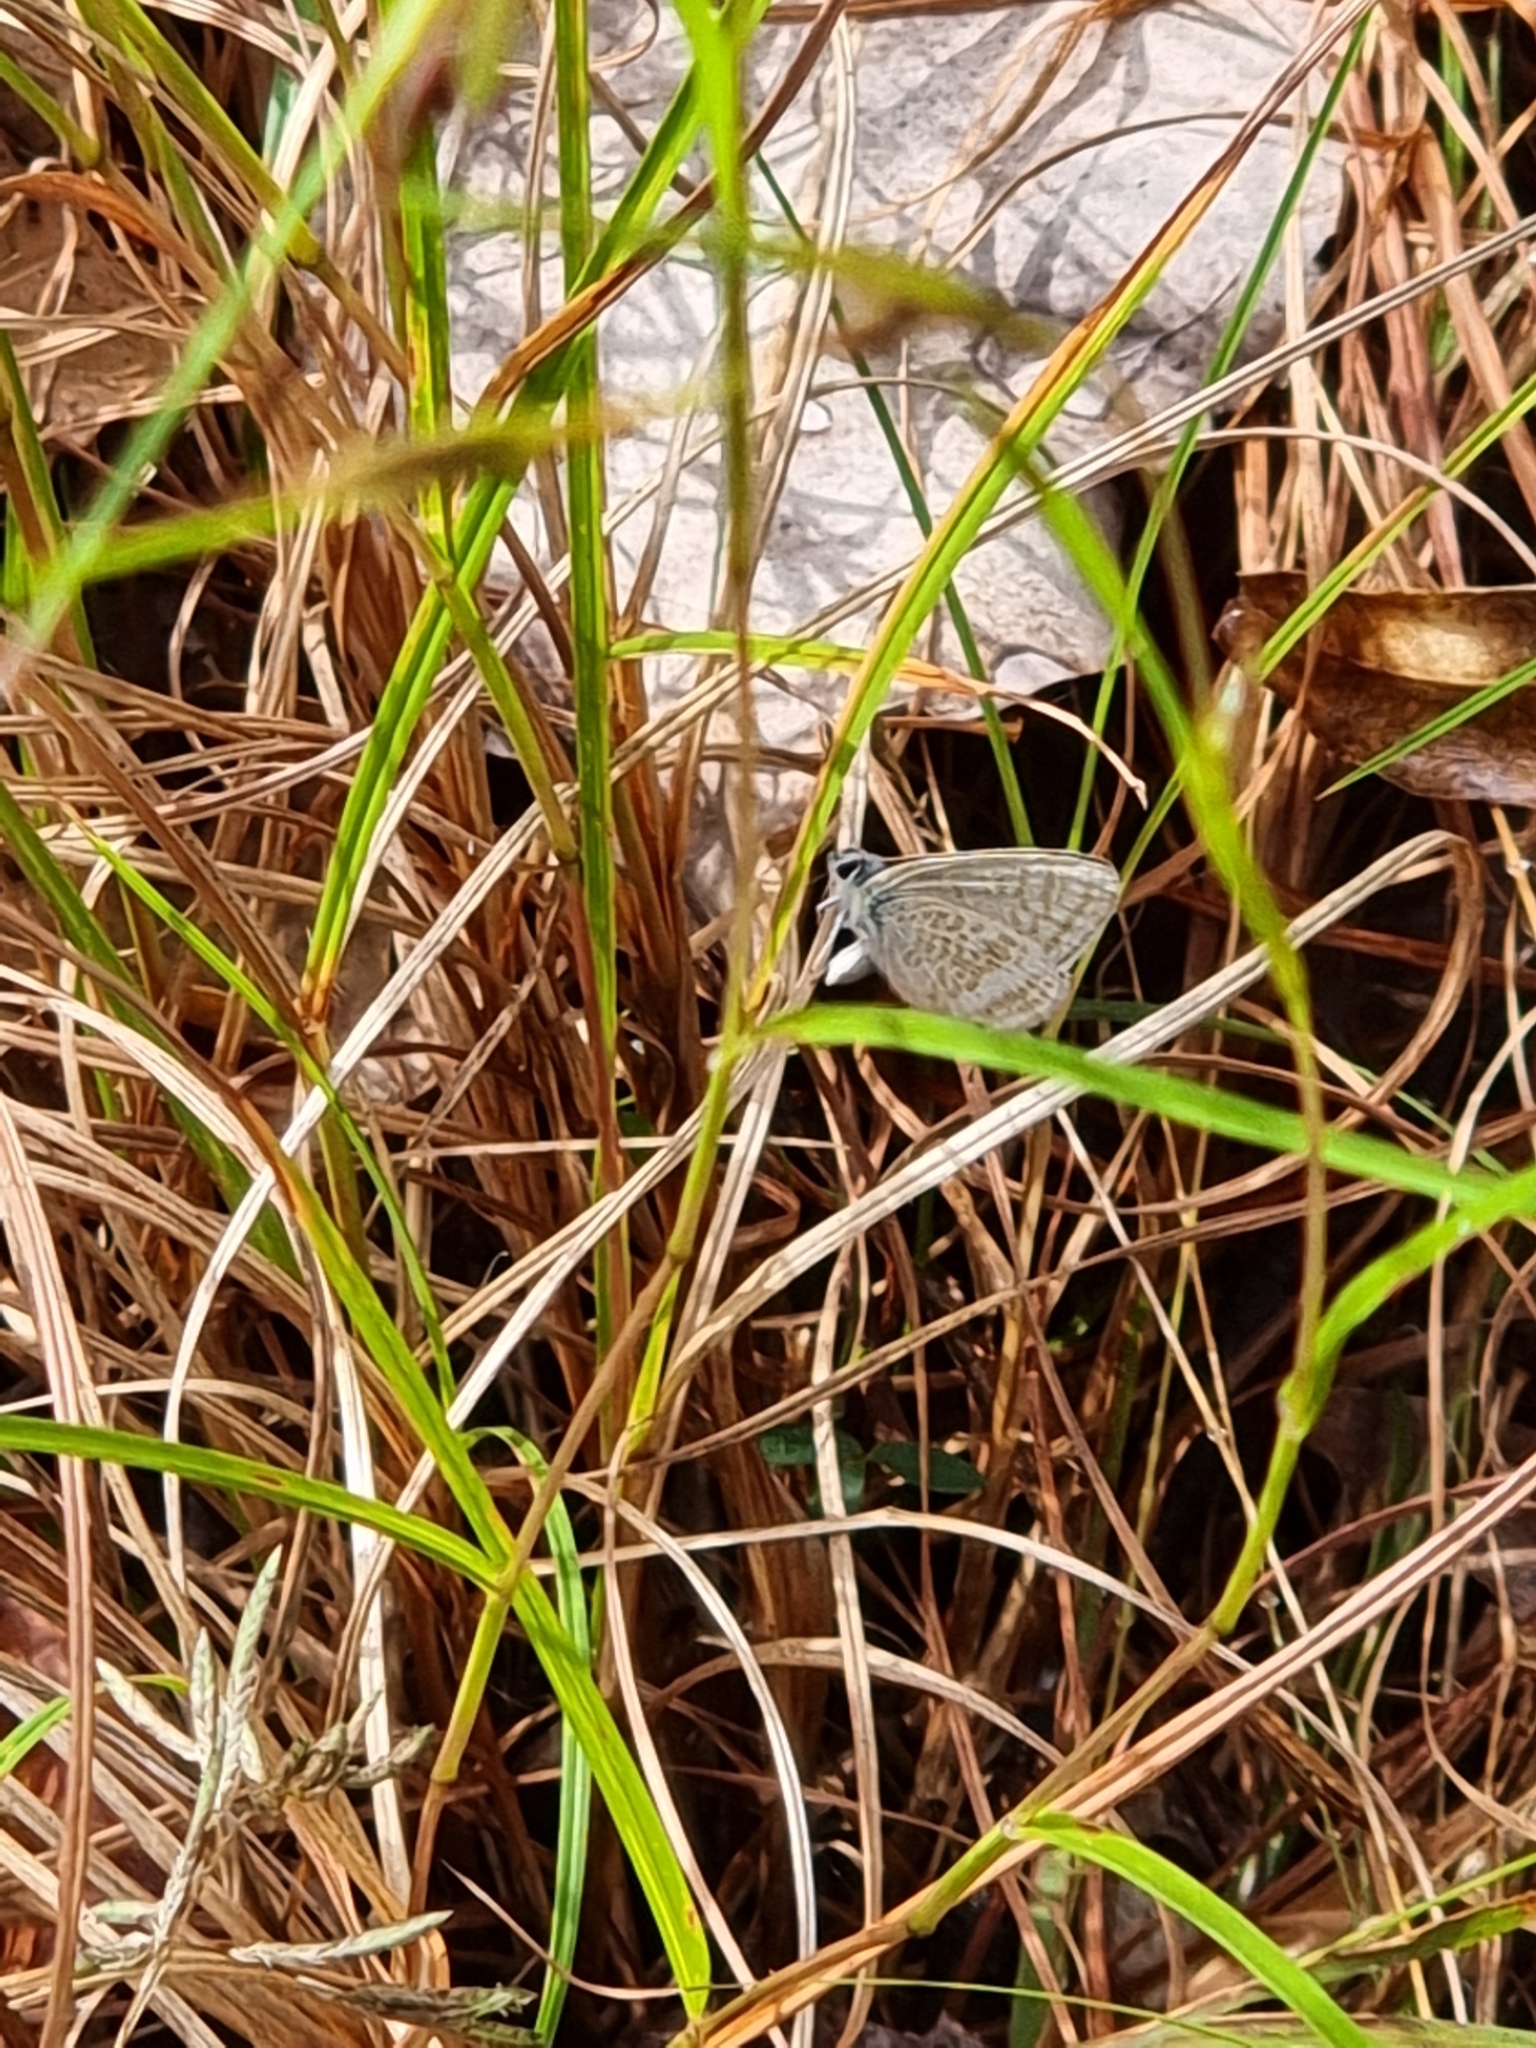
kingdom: Animalia
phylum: Arthropoda
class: Insecta
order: Lepidoptera
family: Lycaenidae
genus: Lampides
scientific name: Lampides boeticus
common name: Long-tailed blue
